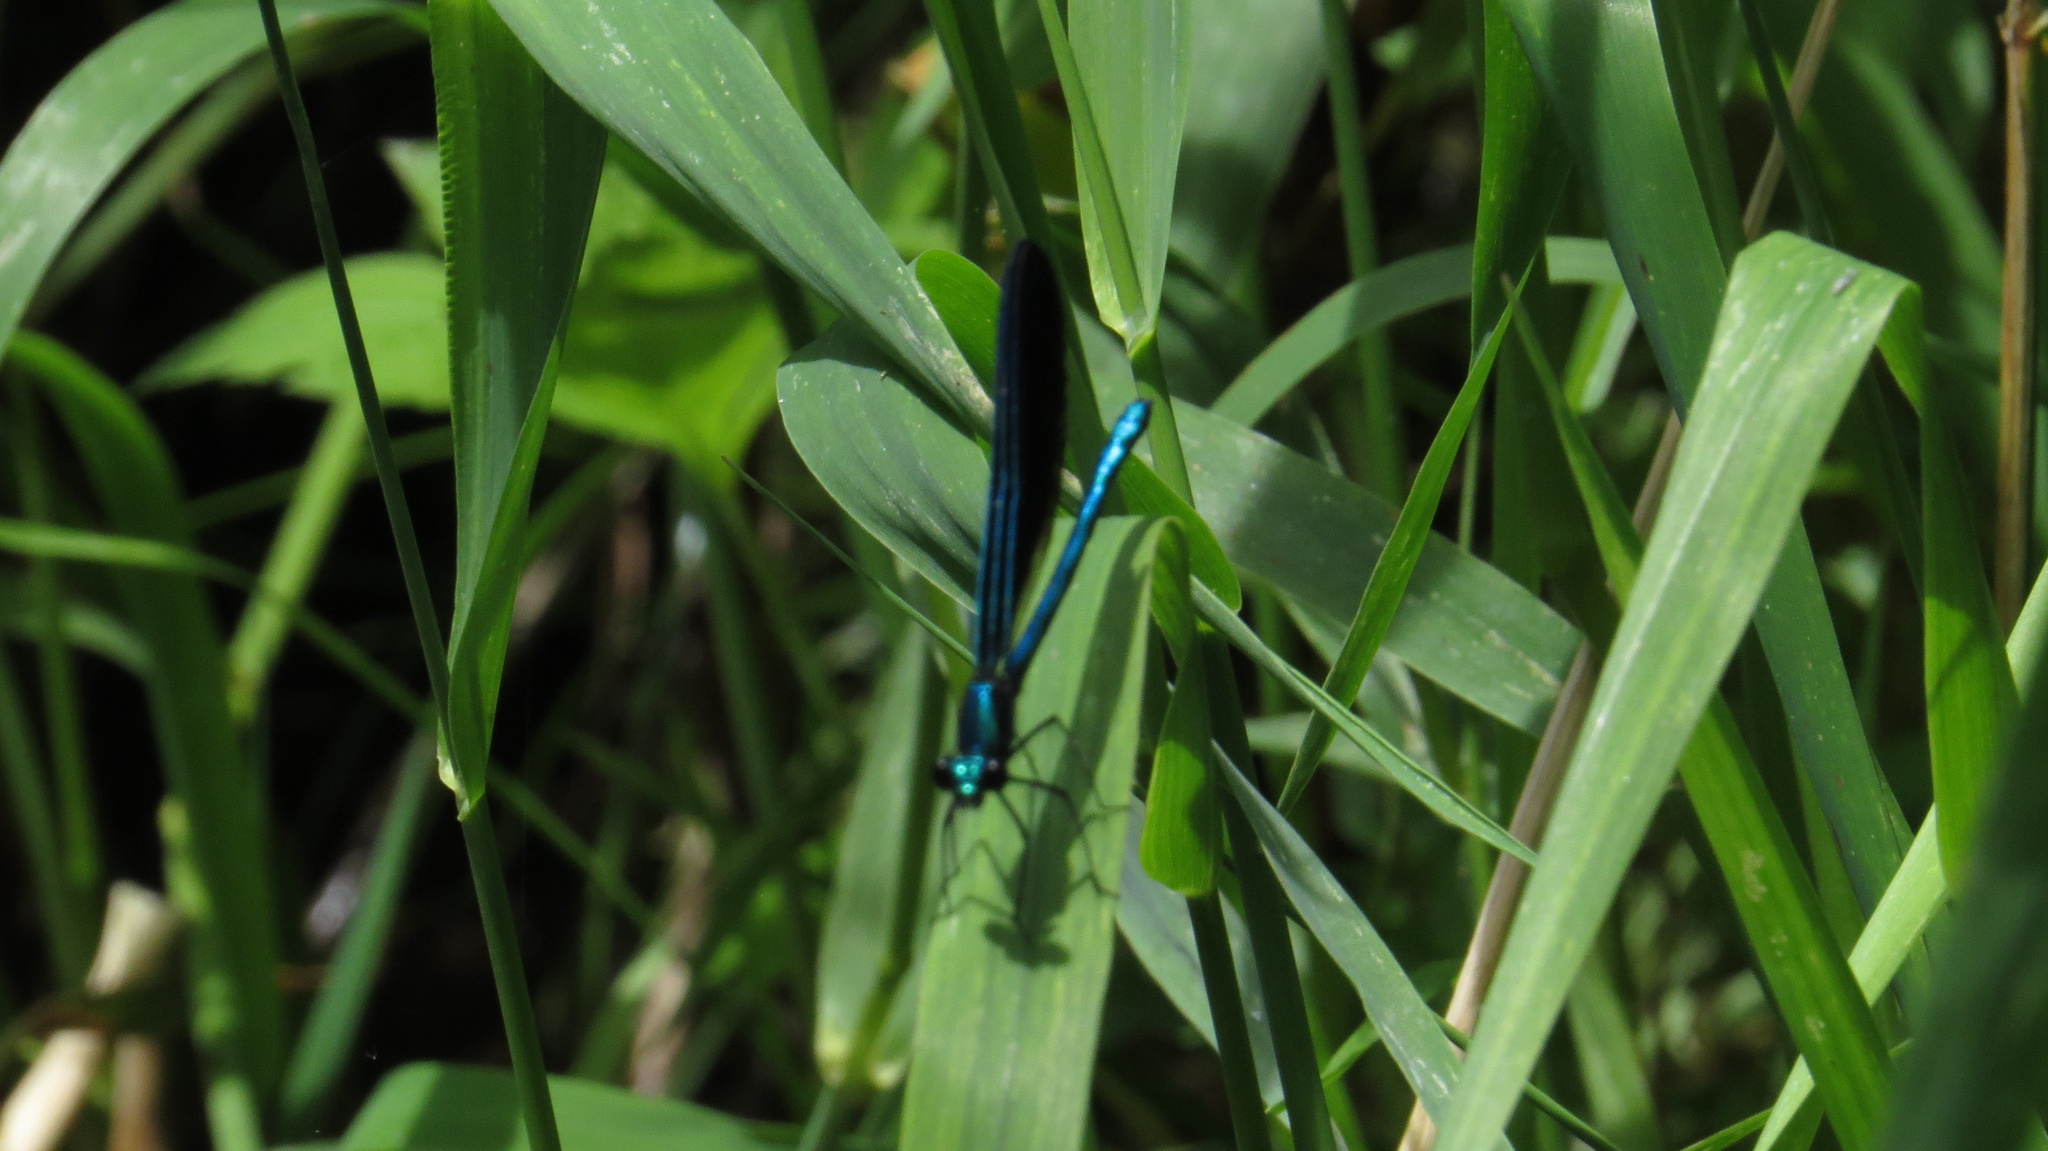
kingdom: Animalia
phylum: Arthropoda
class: Insecta
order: Odonata
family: Calopterygidae
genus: Calopteryx
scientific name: Calopteryx maculata
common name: Ebony jewelwing
